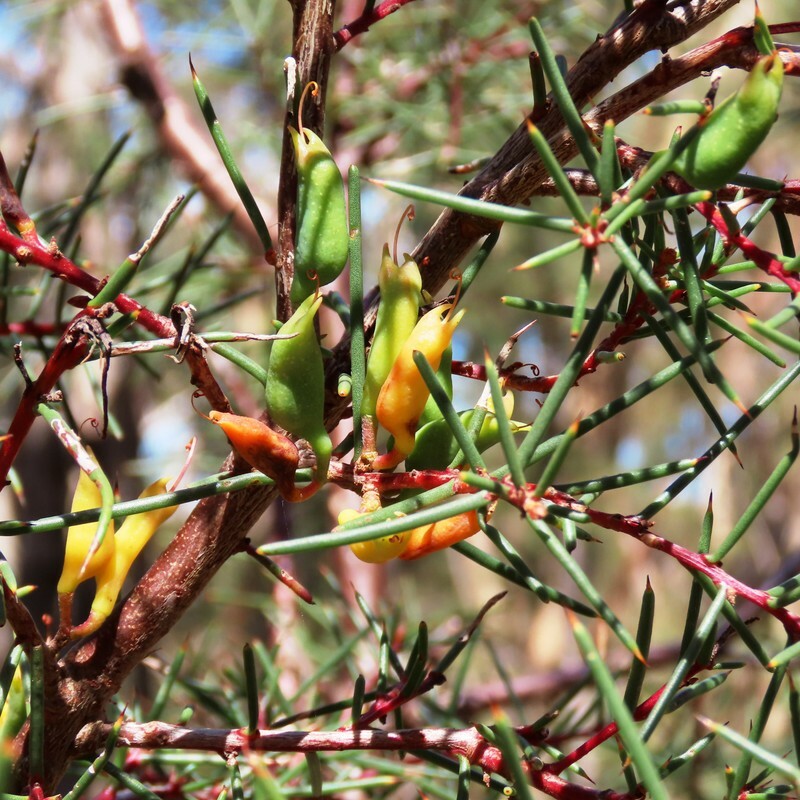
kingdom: Plantae
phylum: Tracheophyta
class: Magnoliopsida
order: Proteales
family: Proteaceae
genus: Hakea
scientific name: Hakea decurrens
